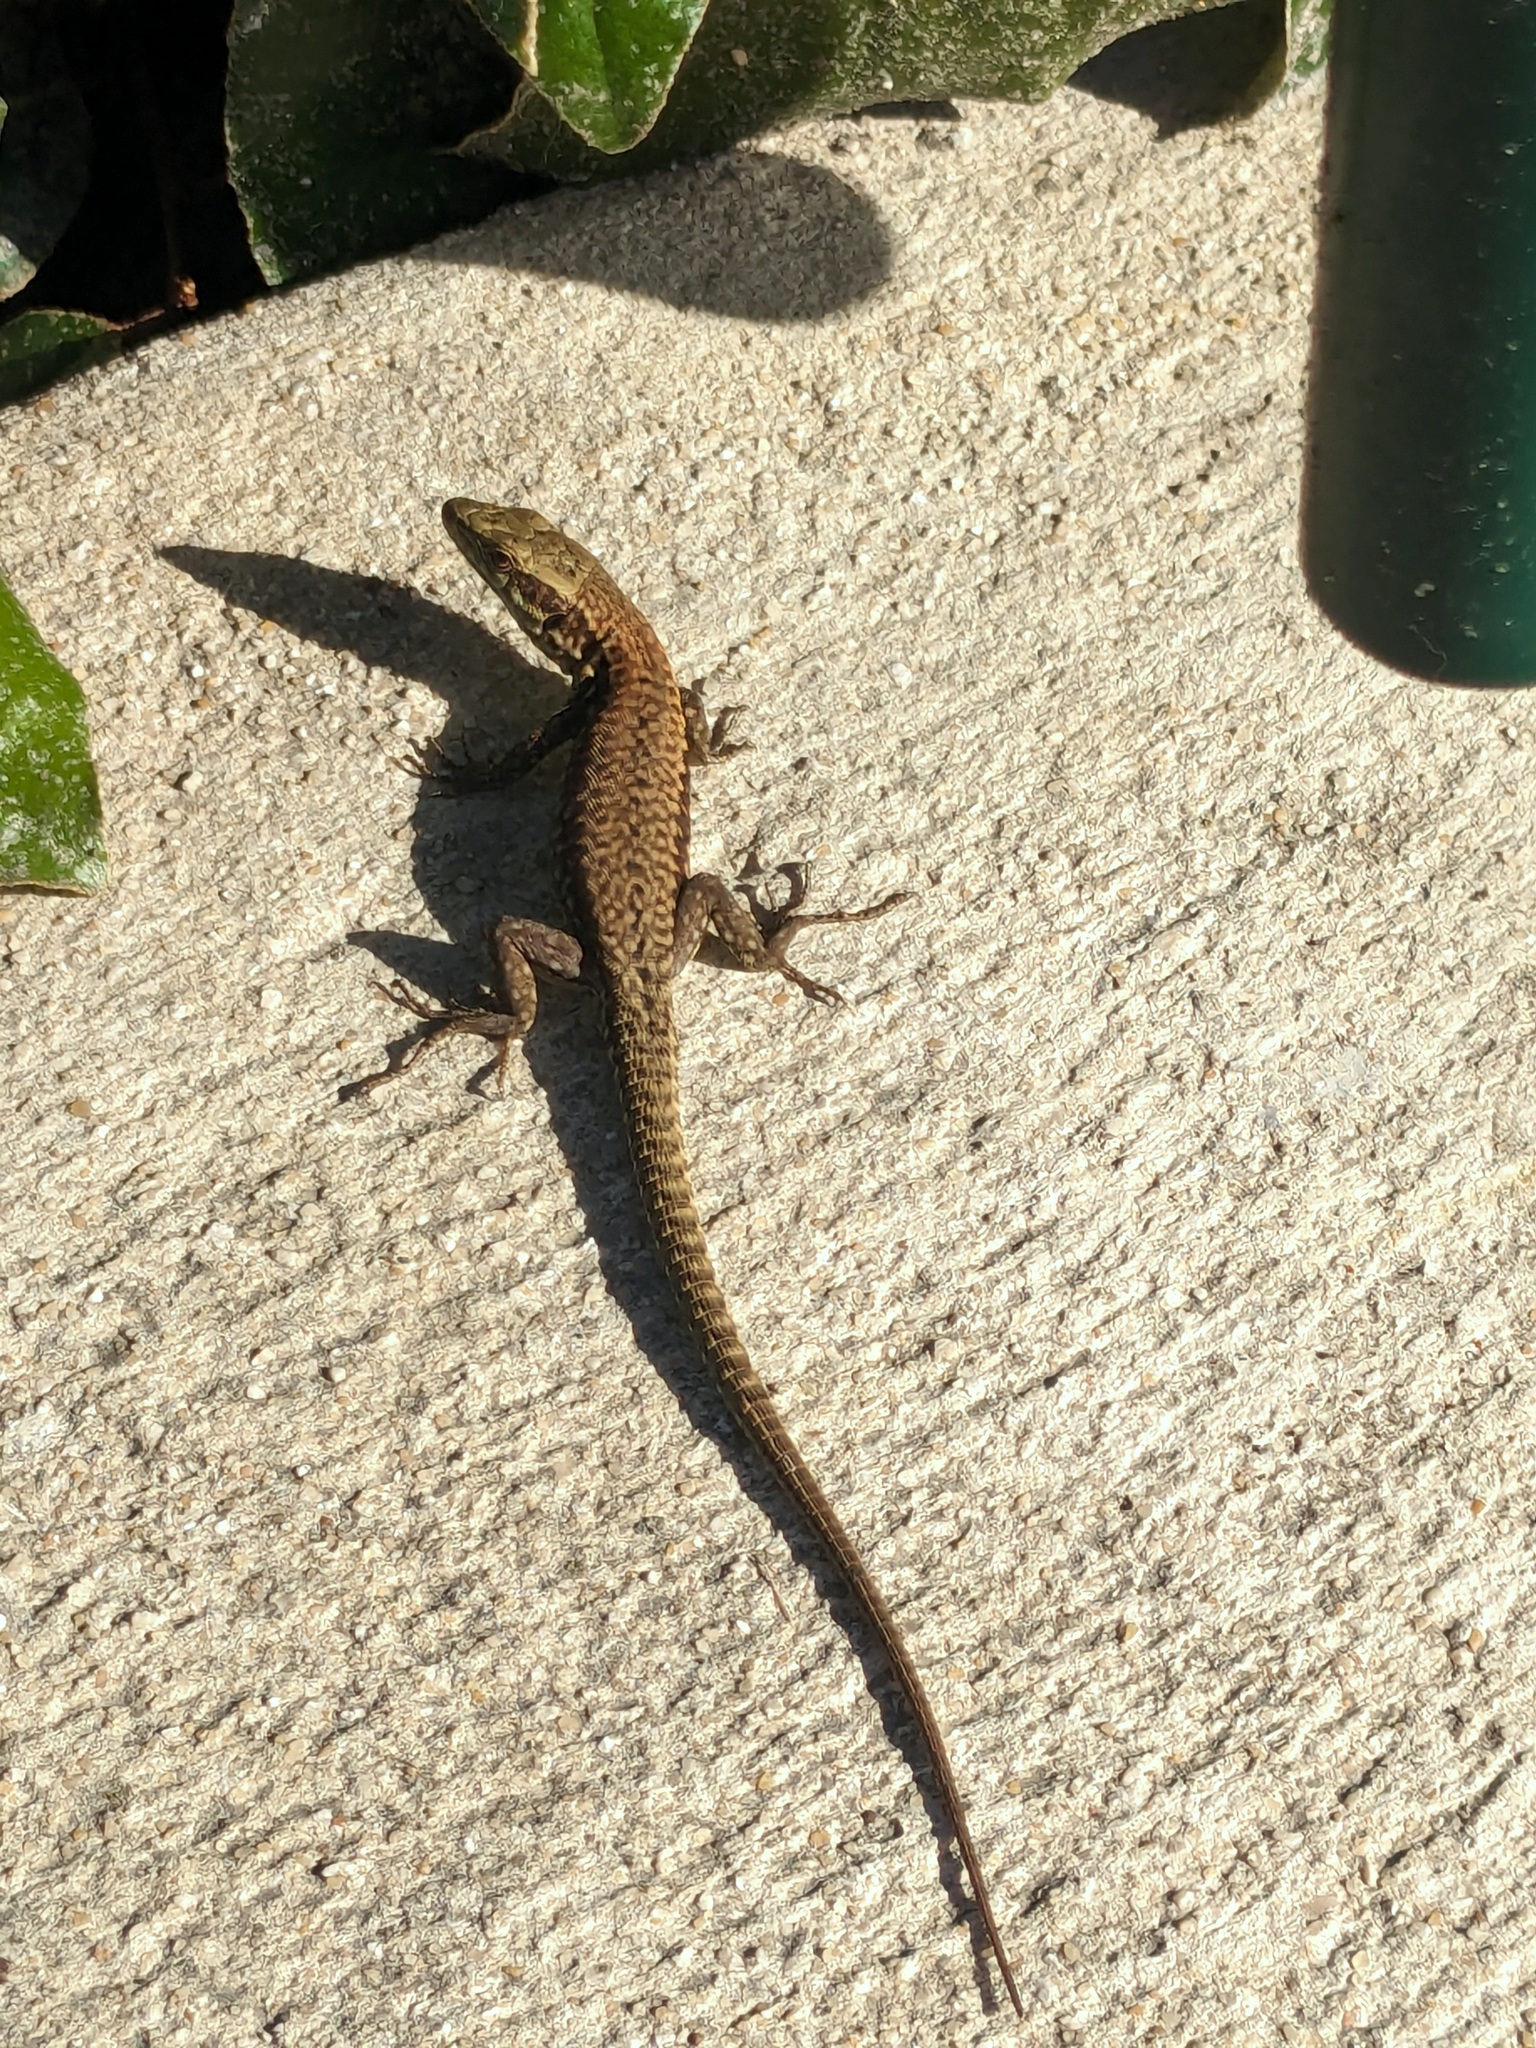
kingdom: Animalia
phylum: Chordata
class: Squamata
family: Lacertidae
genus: Podarcis
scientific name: Podarcis muralis
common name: Common wall lizard
